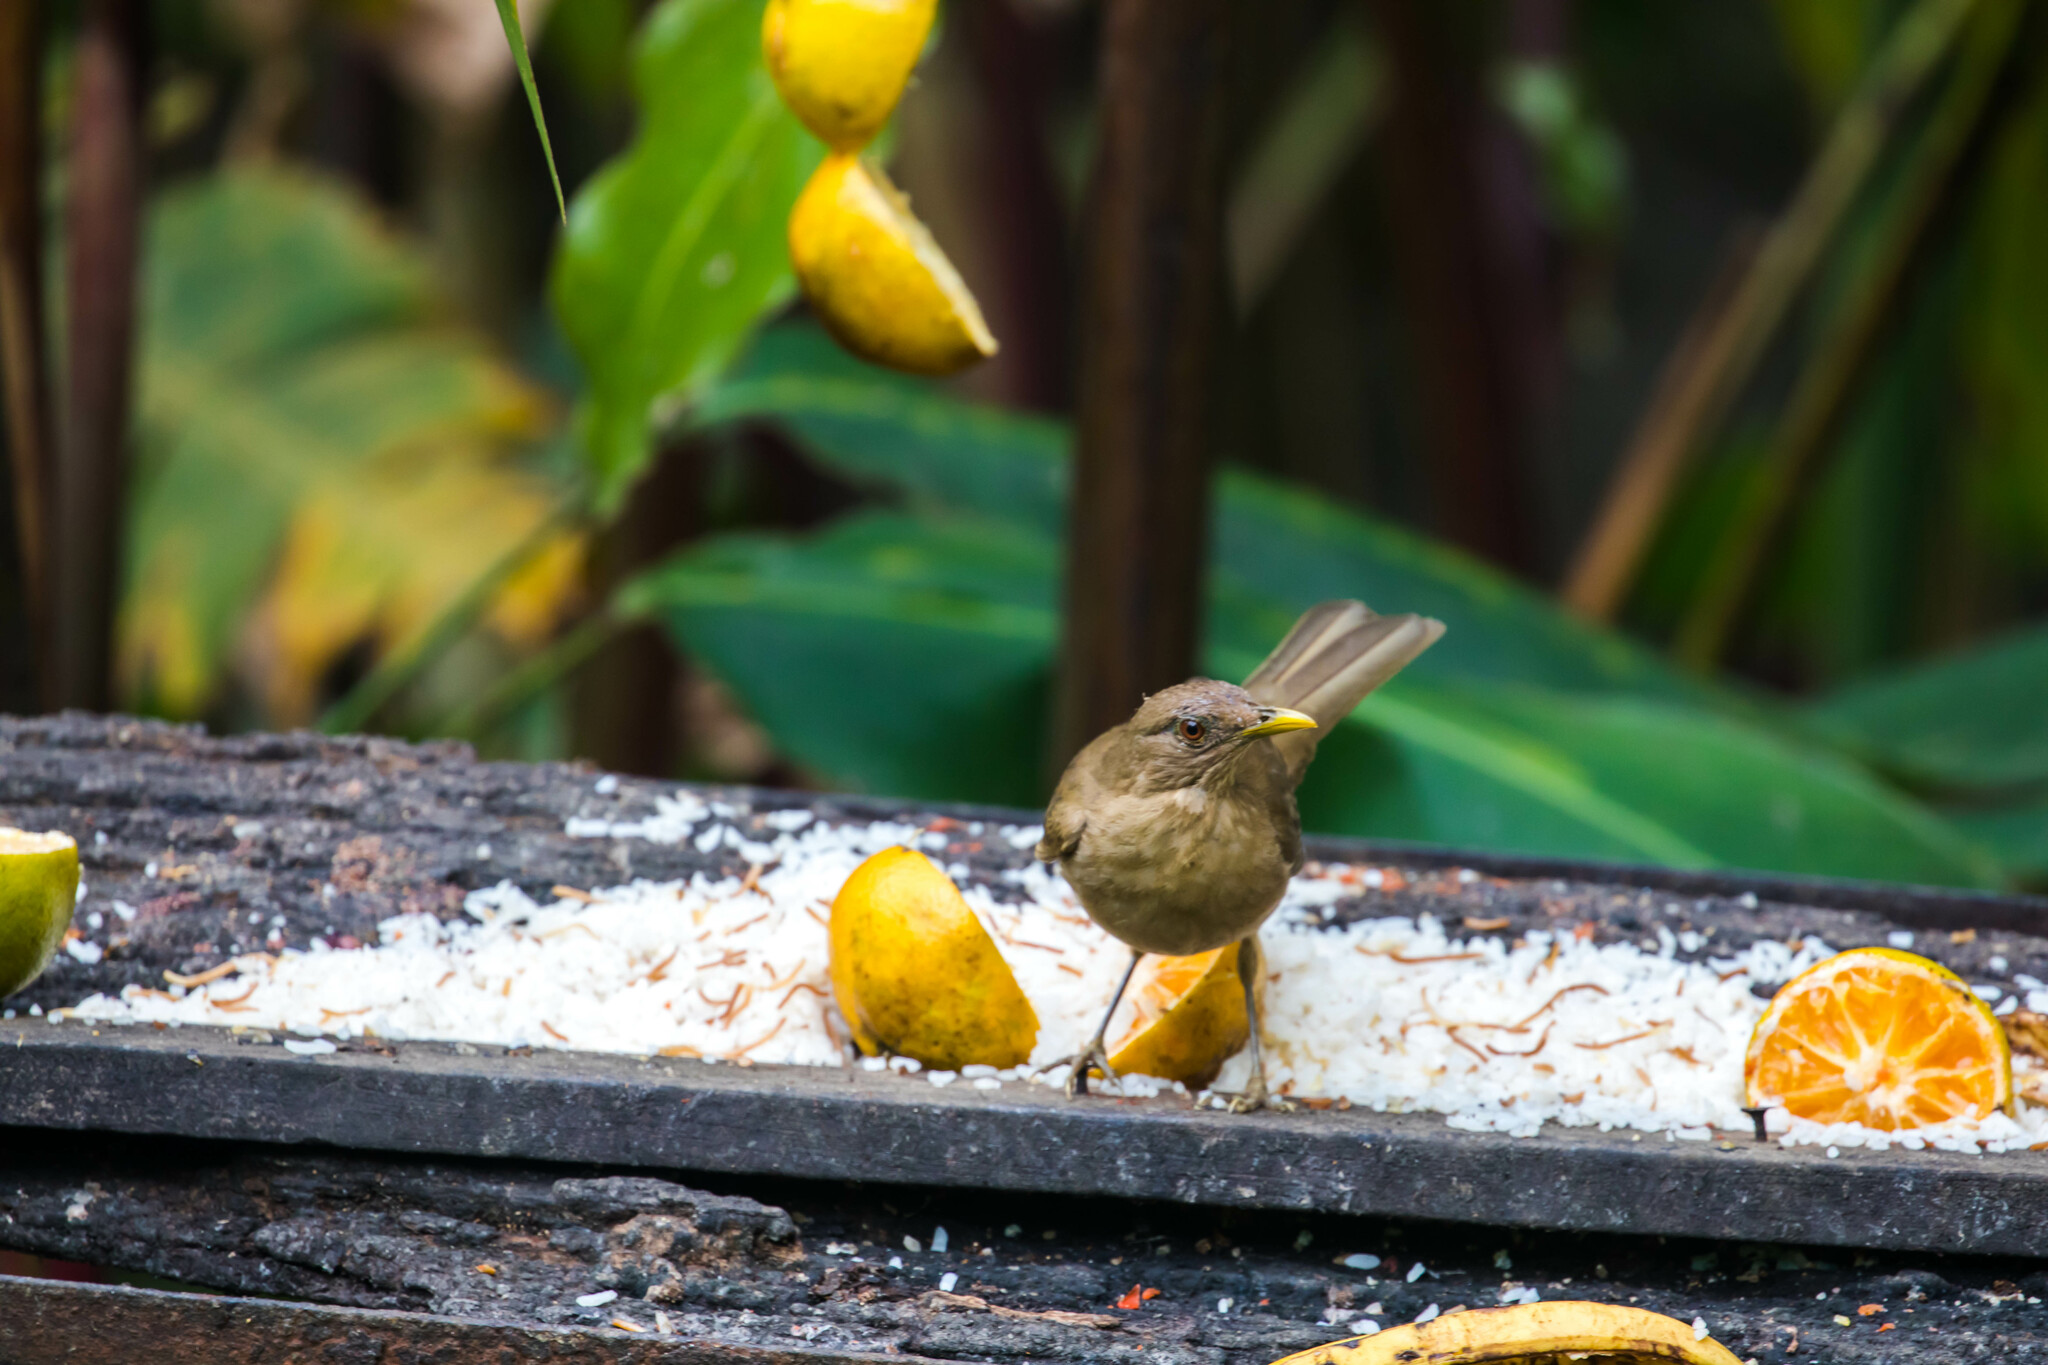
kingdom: Animalia
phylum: Chordata
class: Aves
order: Passeriformes
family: Turdidae
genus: Turdus
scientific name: Turdus grayi
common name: Clay-colored thrush
